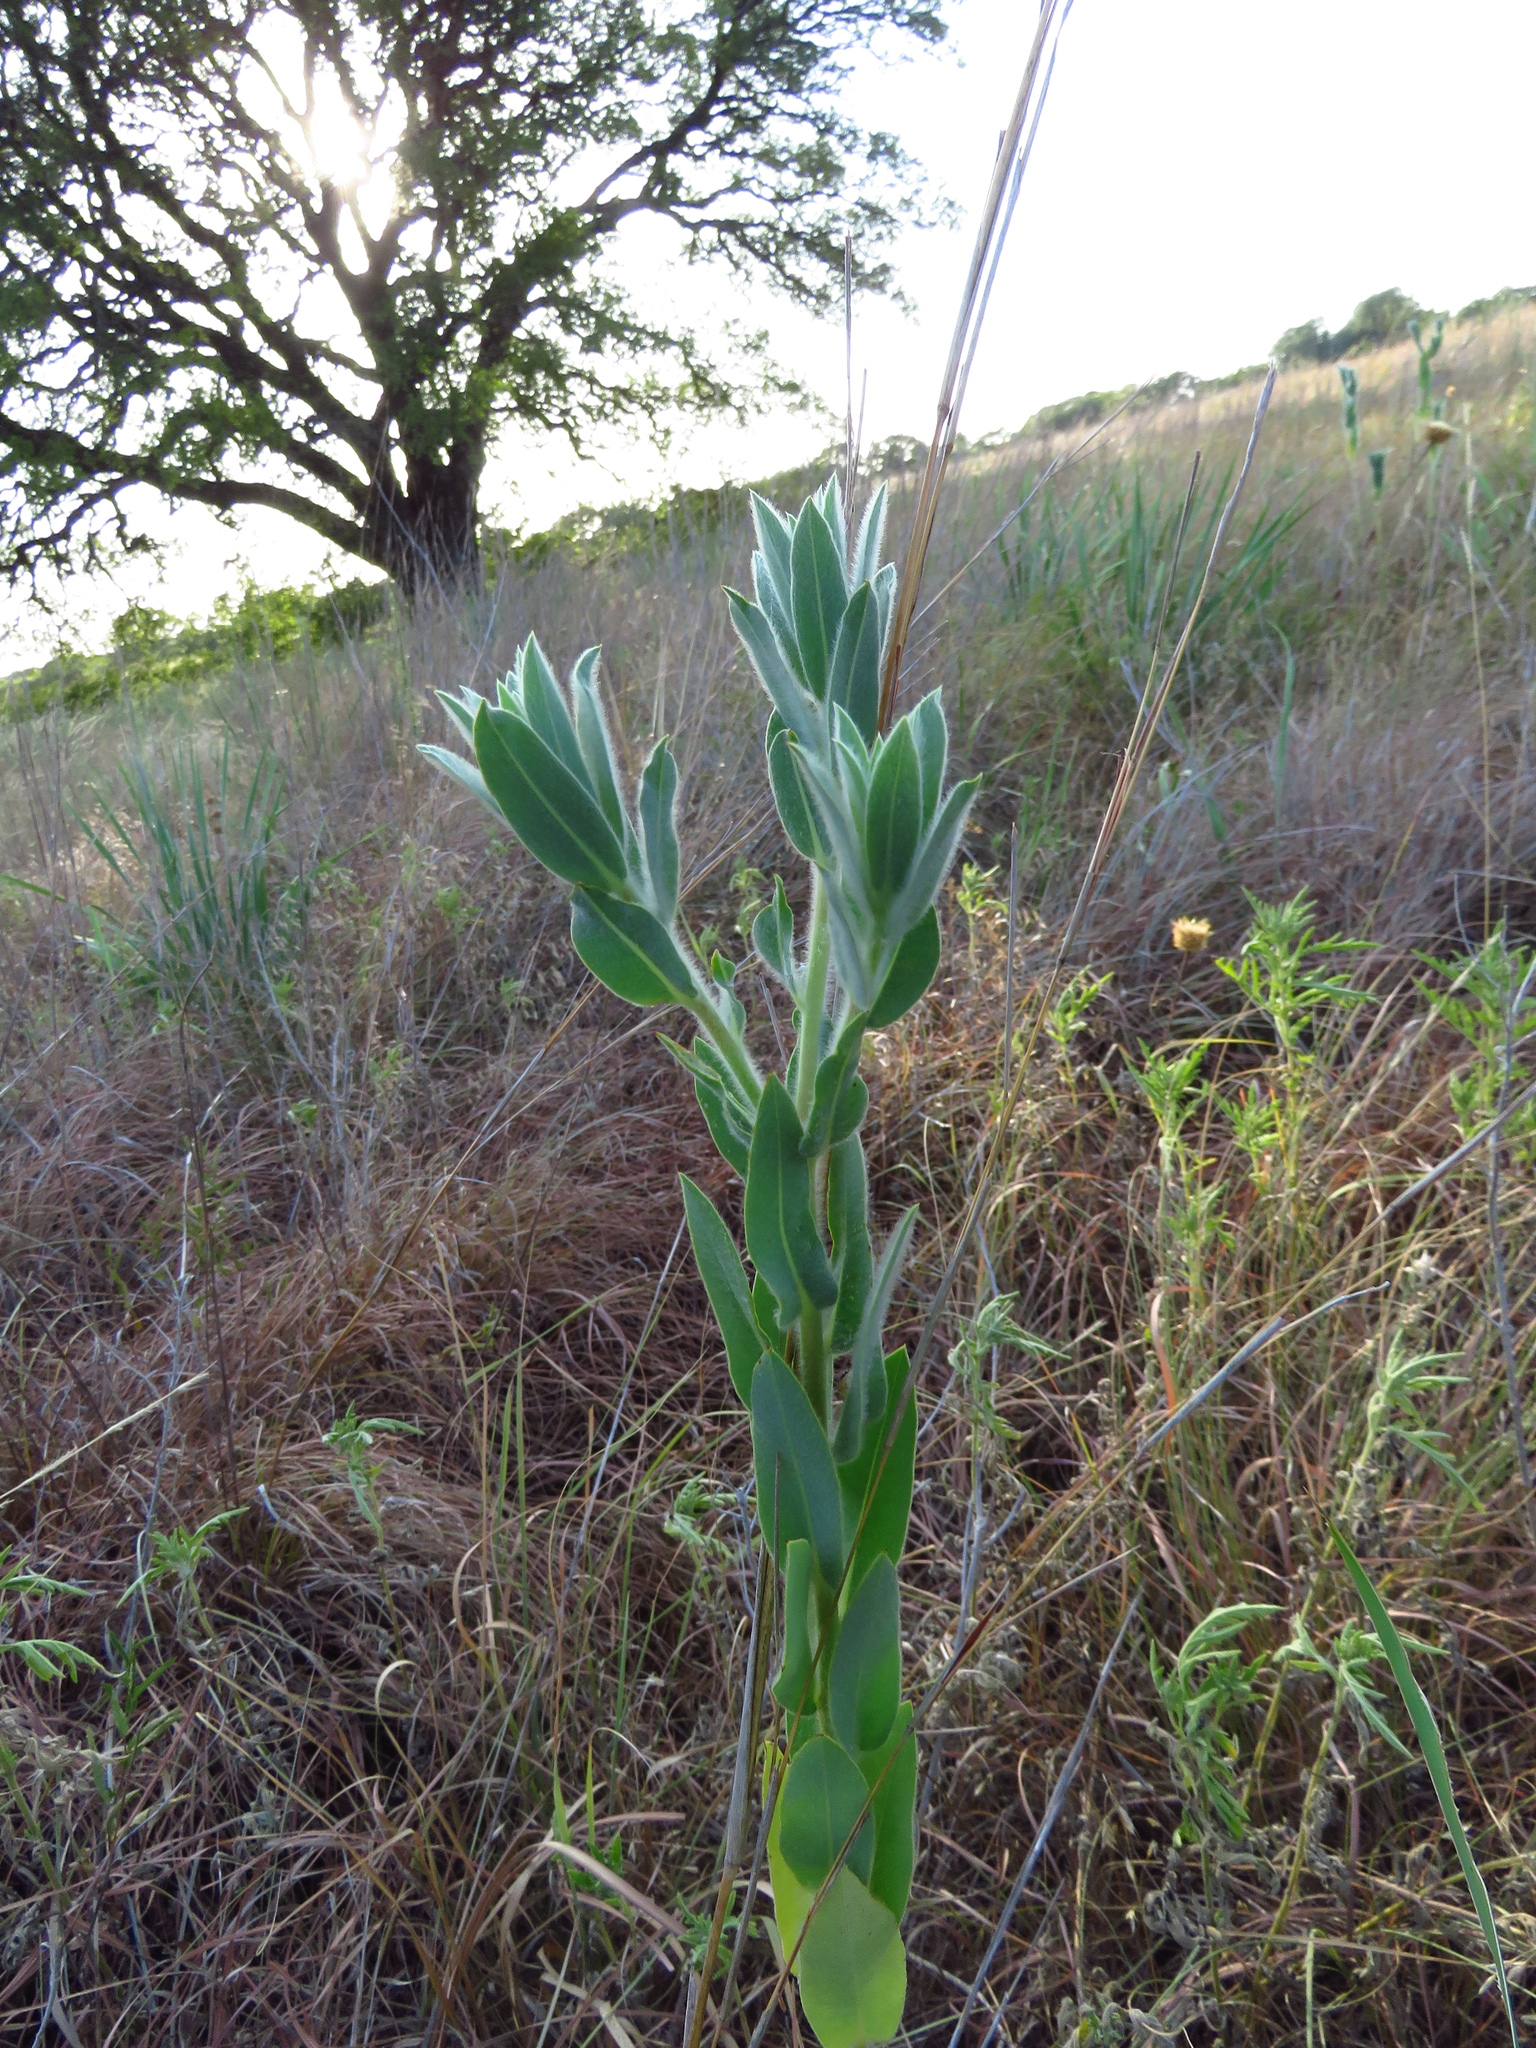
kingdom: Plantae
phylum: Tracheophyta
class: Magnoliopsida
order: Malpighiales
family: Euphorbiaceae
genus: Euphorbia
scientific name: Euphorbia bicolor
